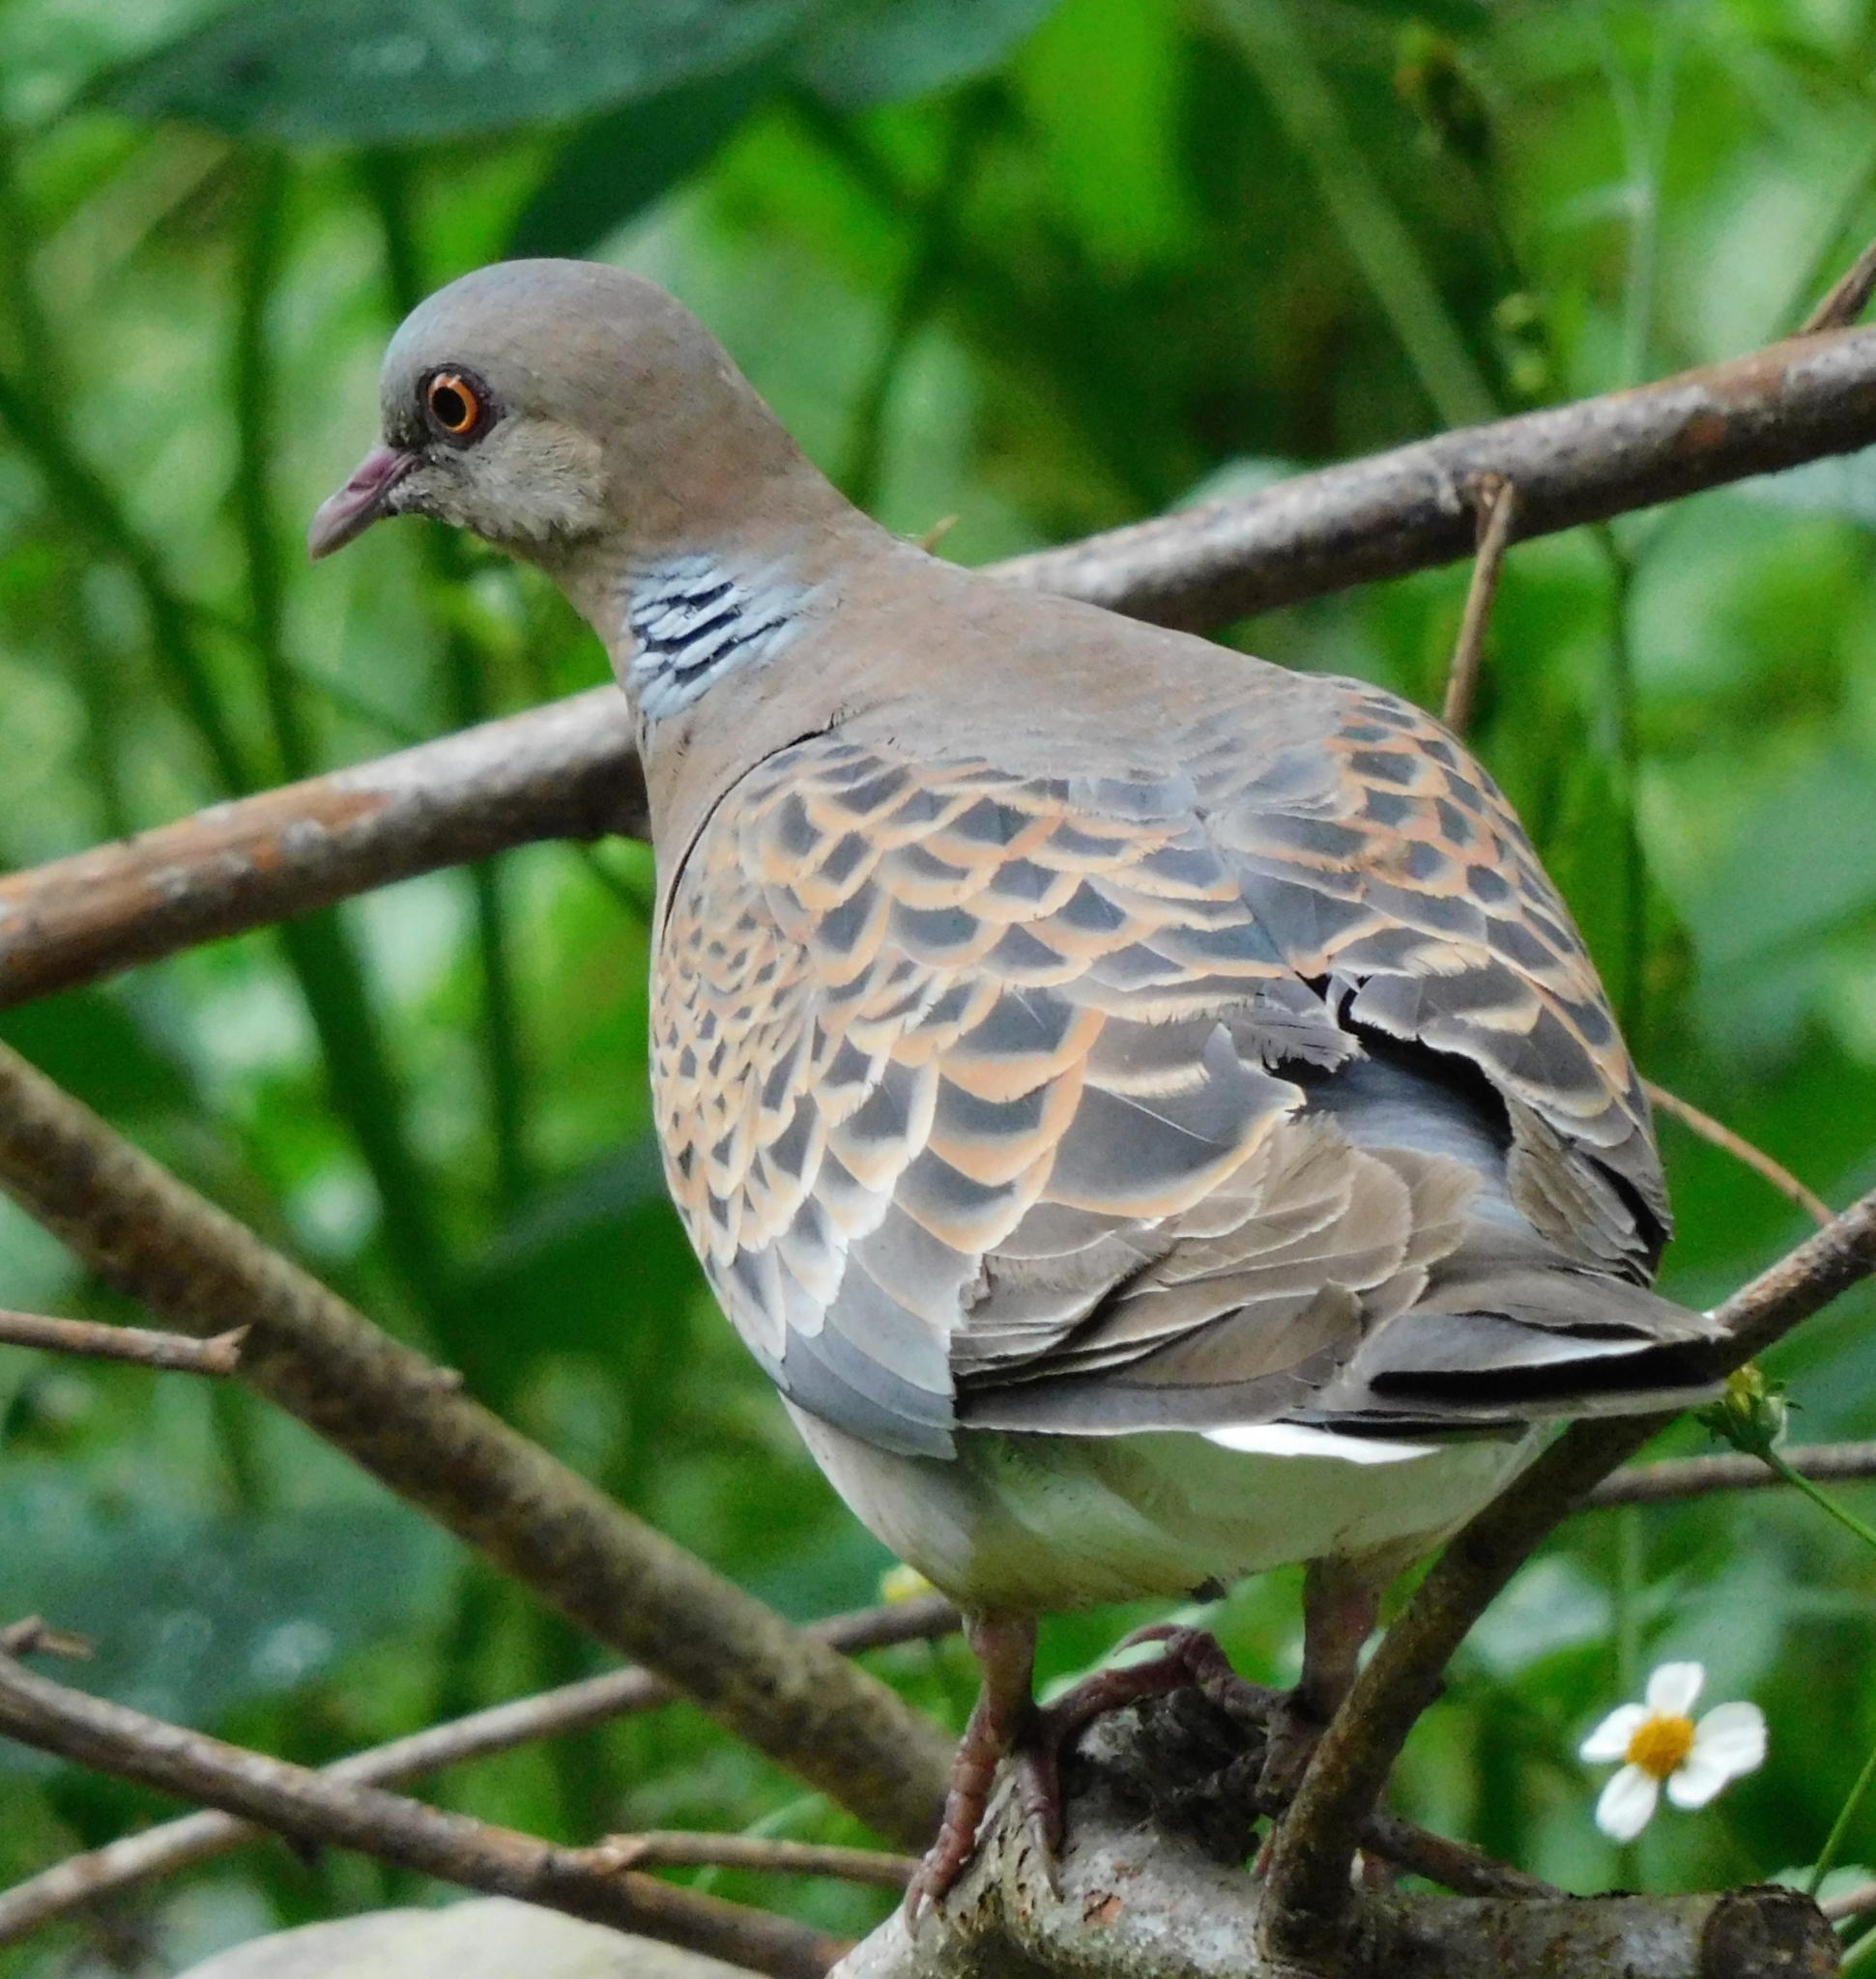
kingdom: Animalia
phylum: Chordata
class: Aves
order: Columbiformes
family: Columbidae
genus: Streptopelia
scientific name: Streptopelia orientalis
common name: Oriental turtle dove
